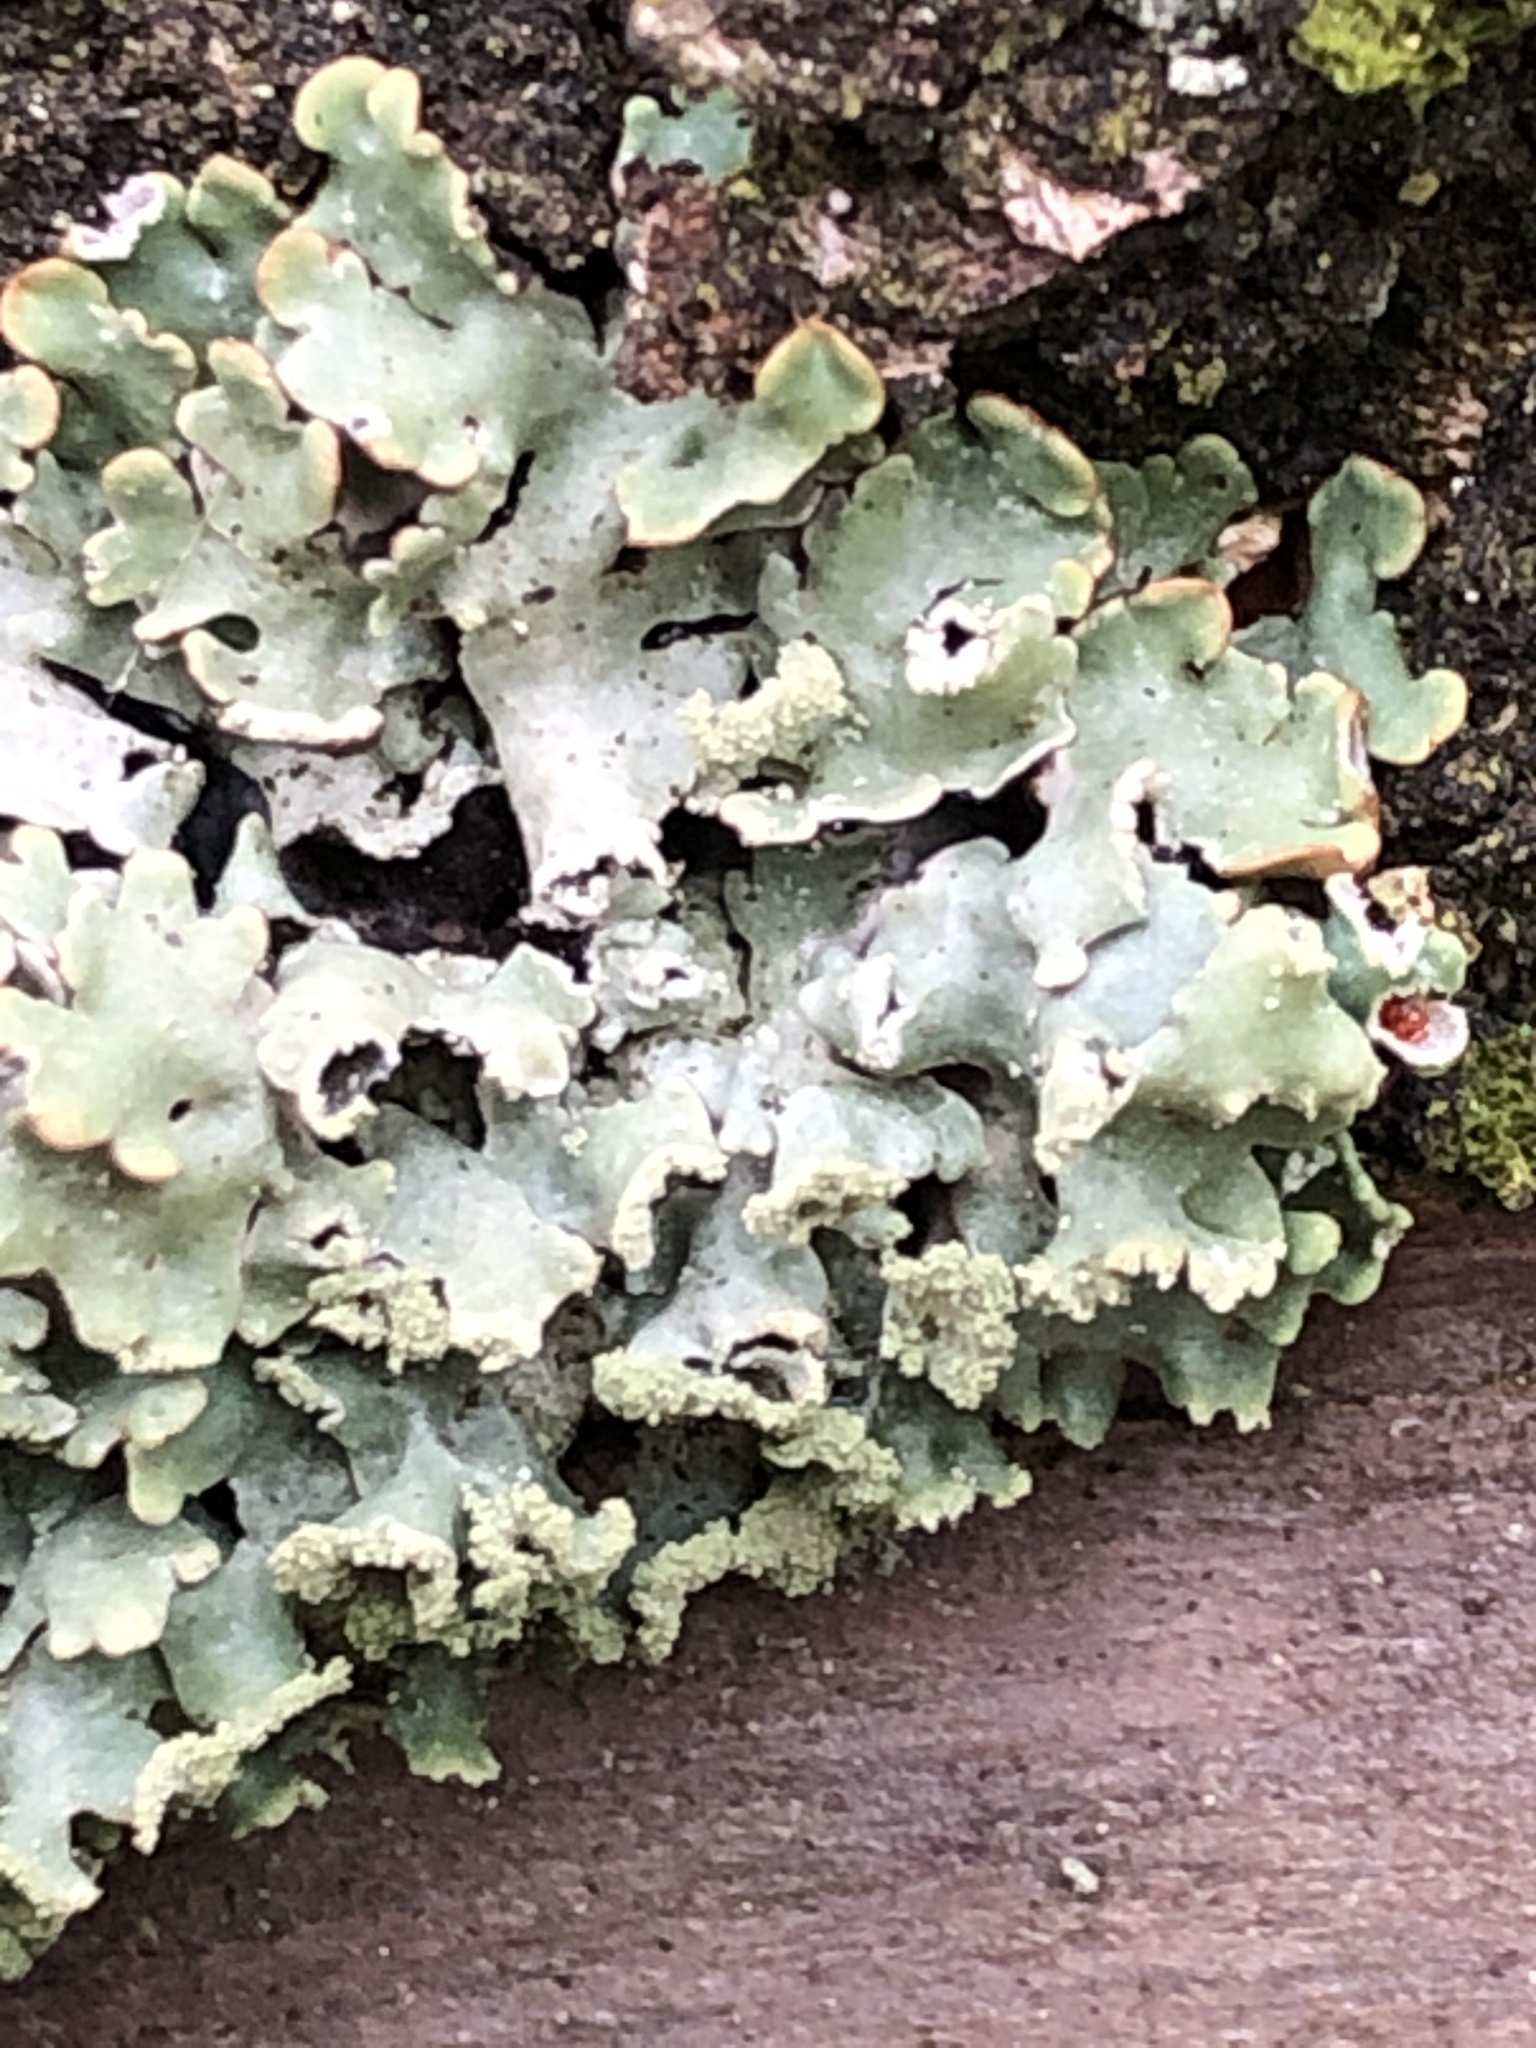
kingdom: Fungi
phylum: Ascomycota
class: Lecanoromycetes
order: Lecanorales
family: Parmeliaceae
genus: Hypogymnia
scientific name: Hypogymnia physodes
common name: Dark crottle
